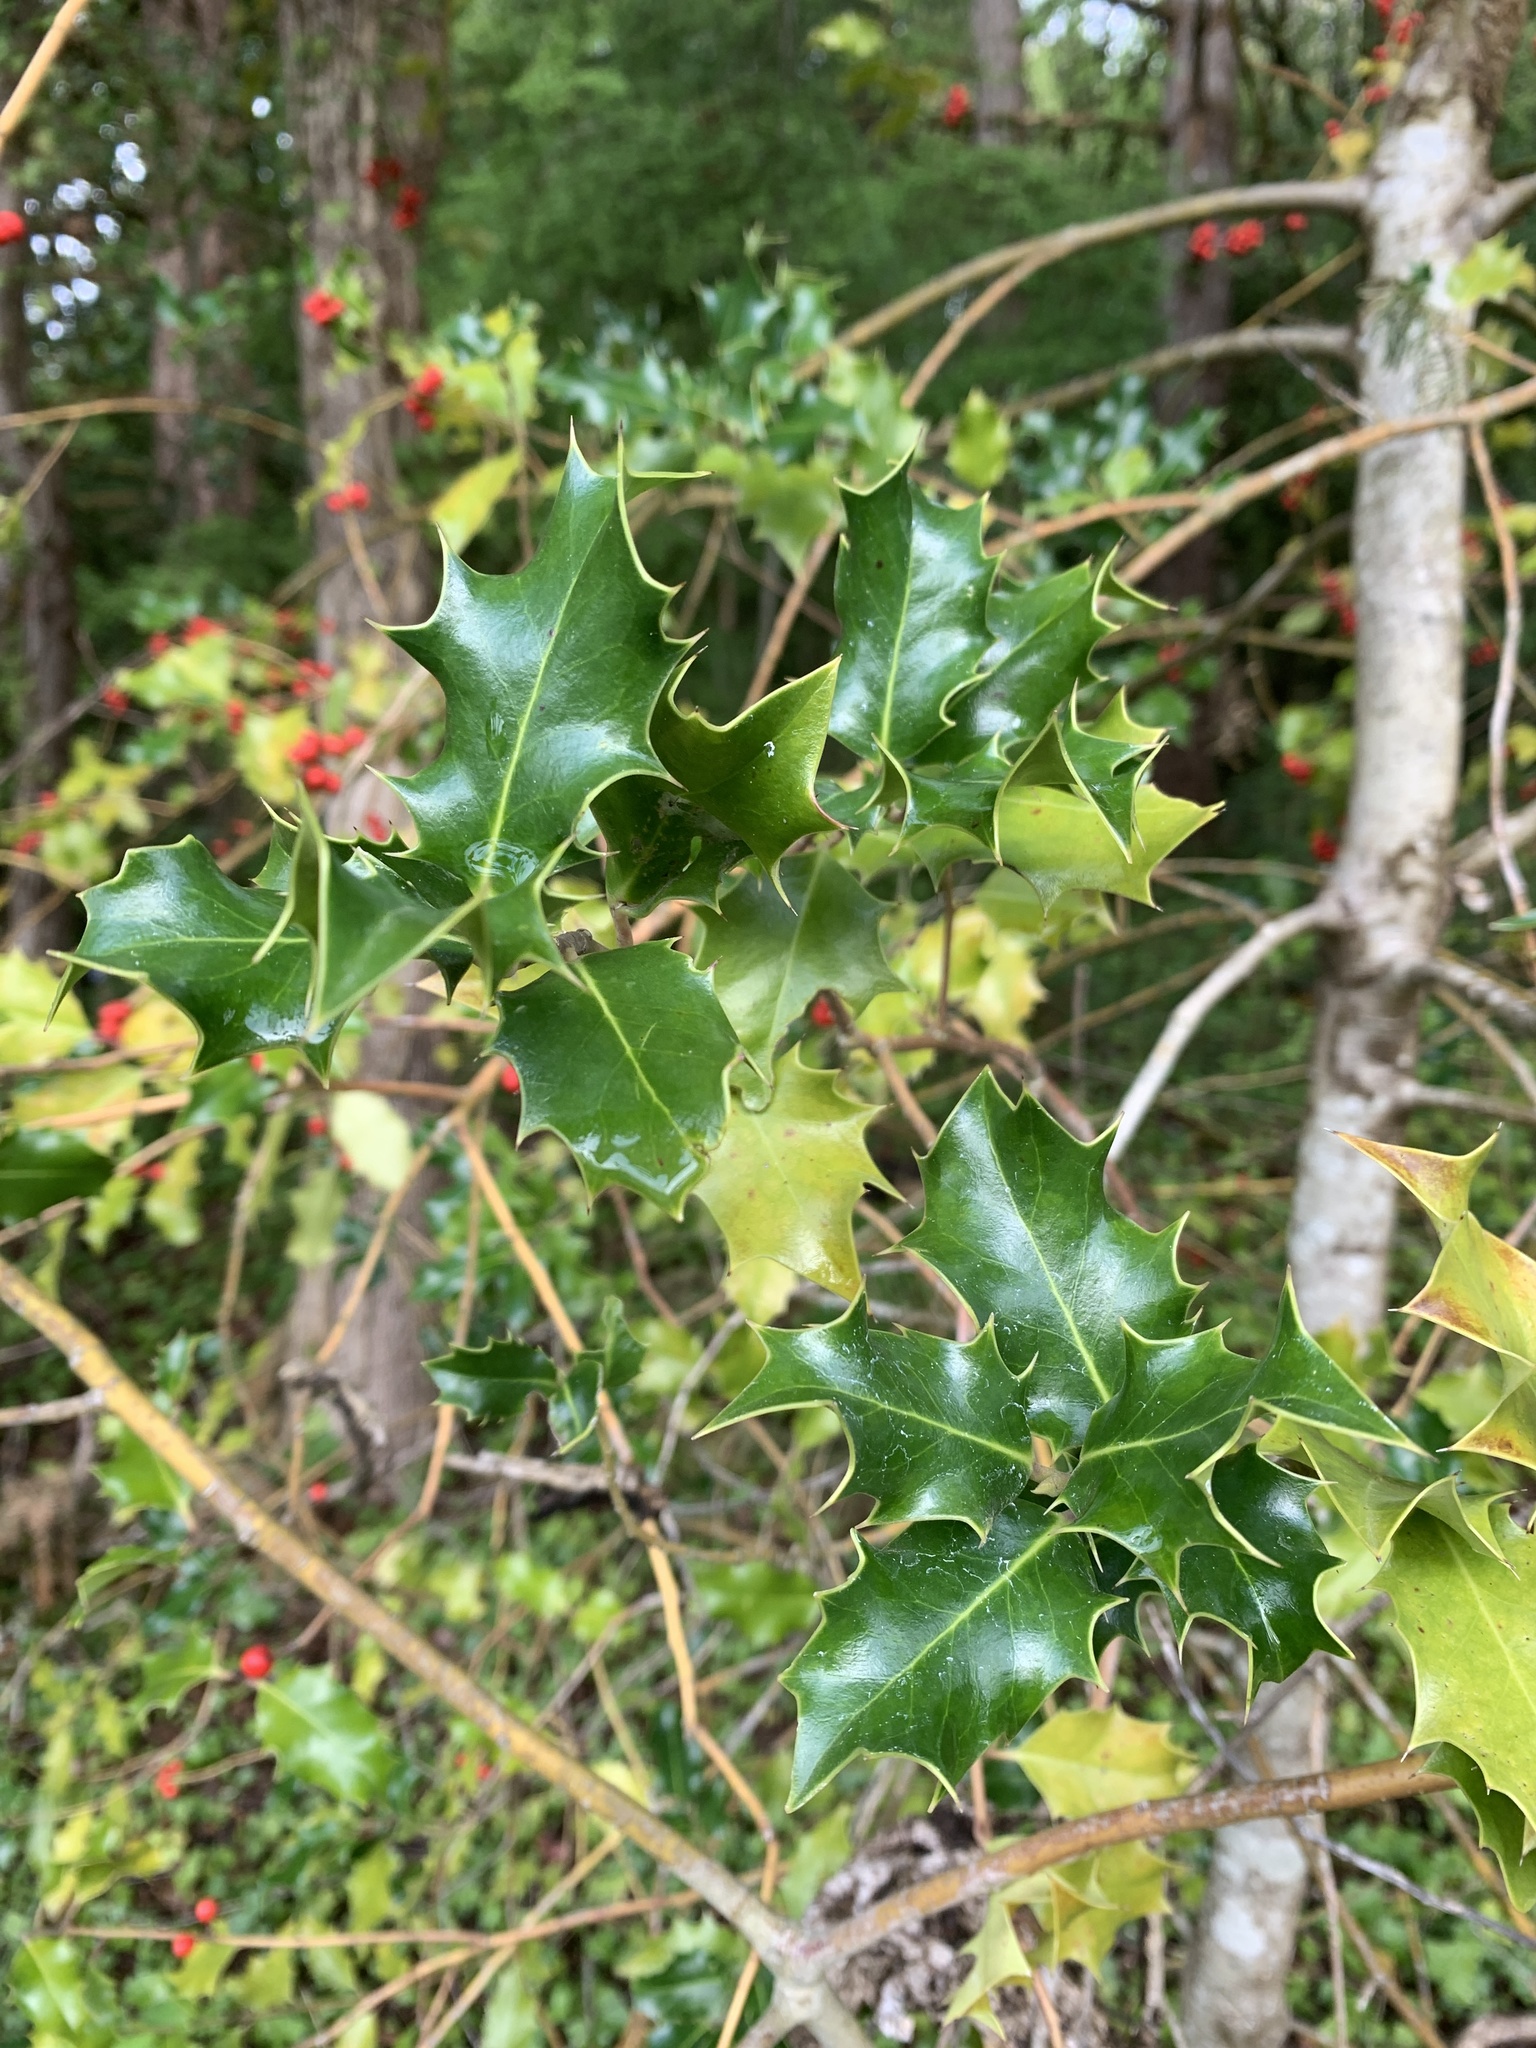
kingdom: Plantae
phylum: Tracheophyta
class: Magnoliopsida
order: Aquifoliales
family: Aquifoliaceae
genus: Ilex
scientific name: Ilex aquifolium
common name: English holly
